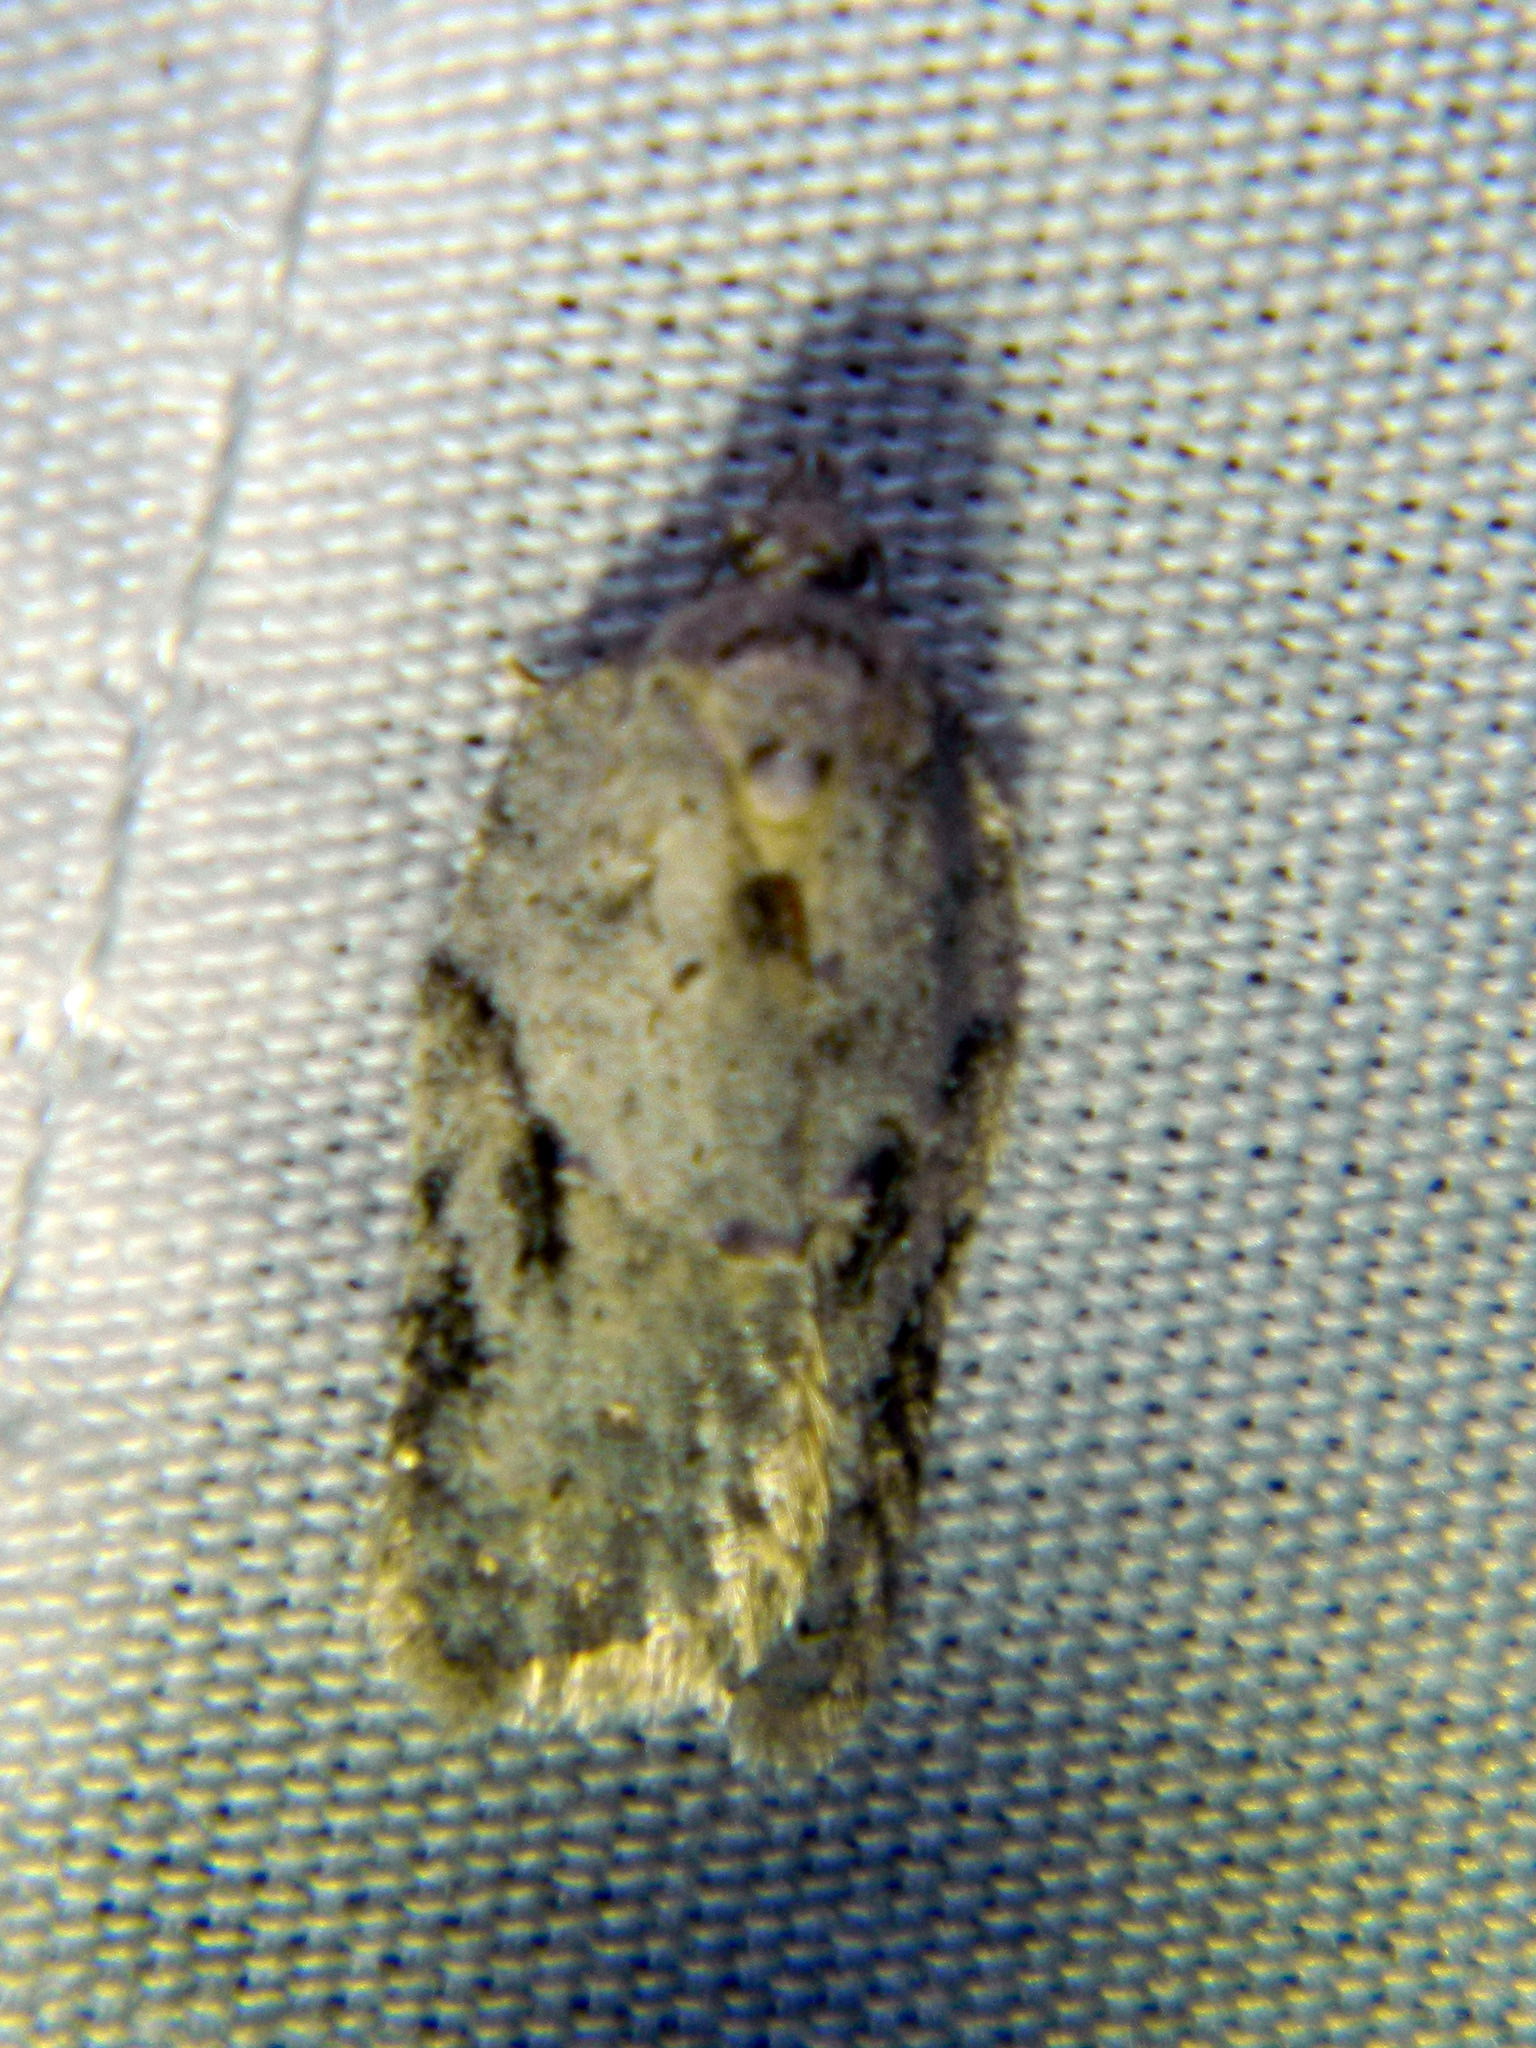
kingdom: Animalia
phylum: Arthropoda
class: Insecta
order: Lepidoptera
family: Tortricidae
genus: Acleris
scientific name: Acleris placidana
